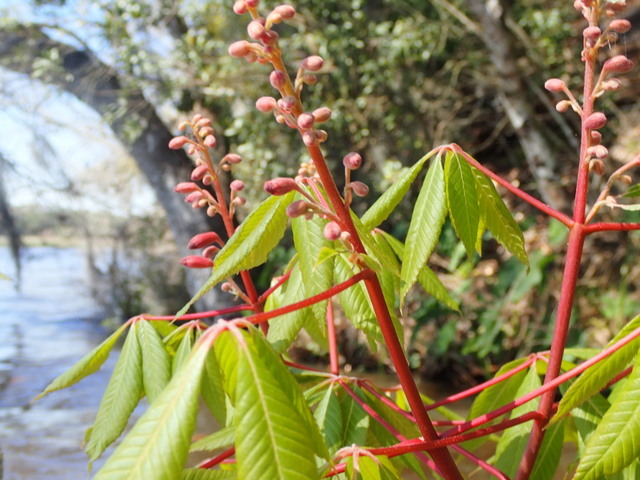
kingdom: Plantae
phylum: Tracheophyta
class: Magnoliopsida
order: Sapindales
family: Sapindaceae
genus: Aesculus
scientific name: Aesculus pavia
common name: Red buckeye
